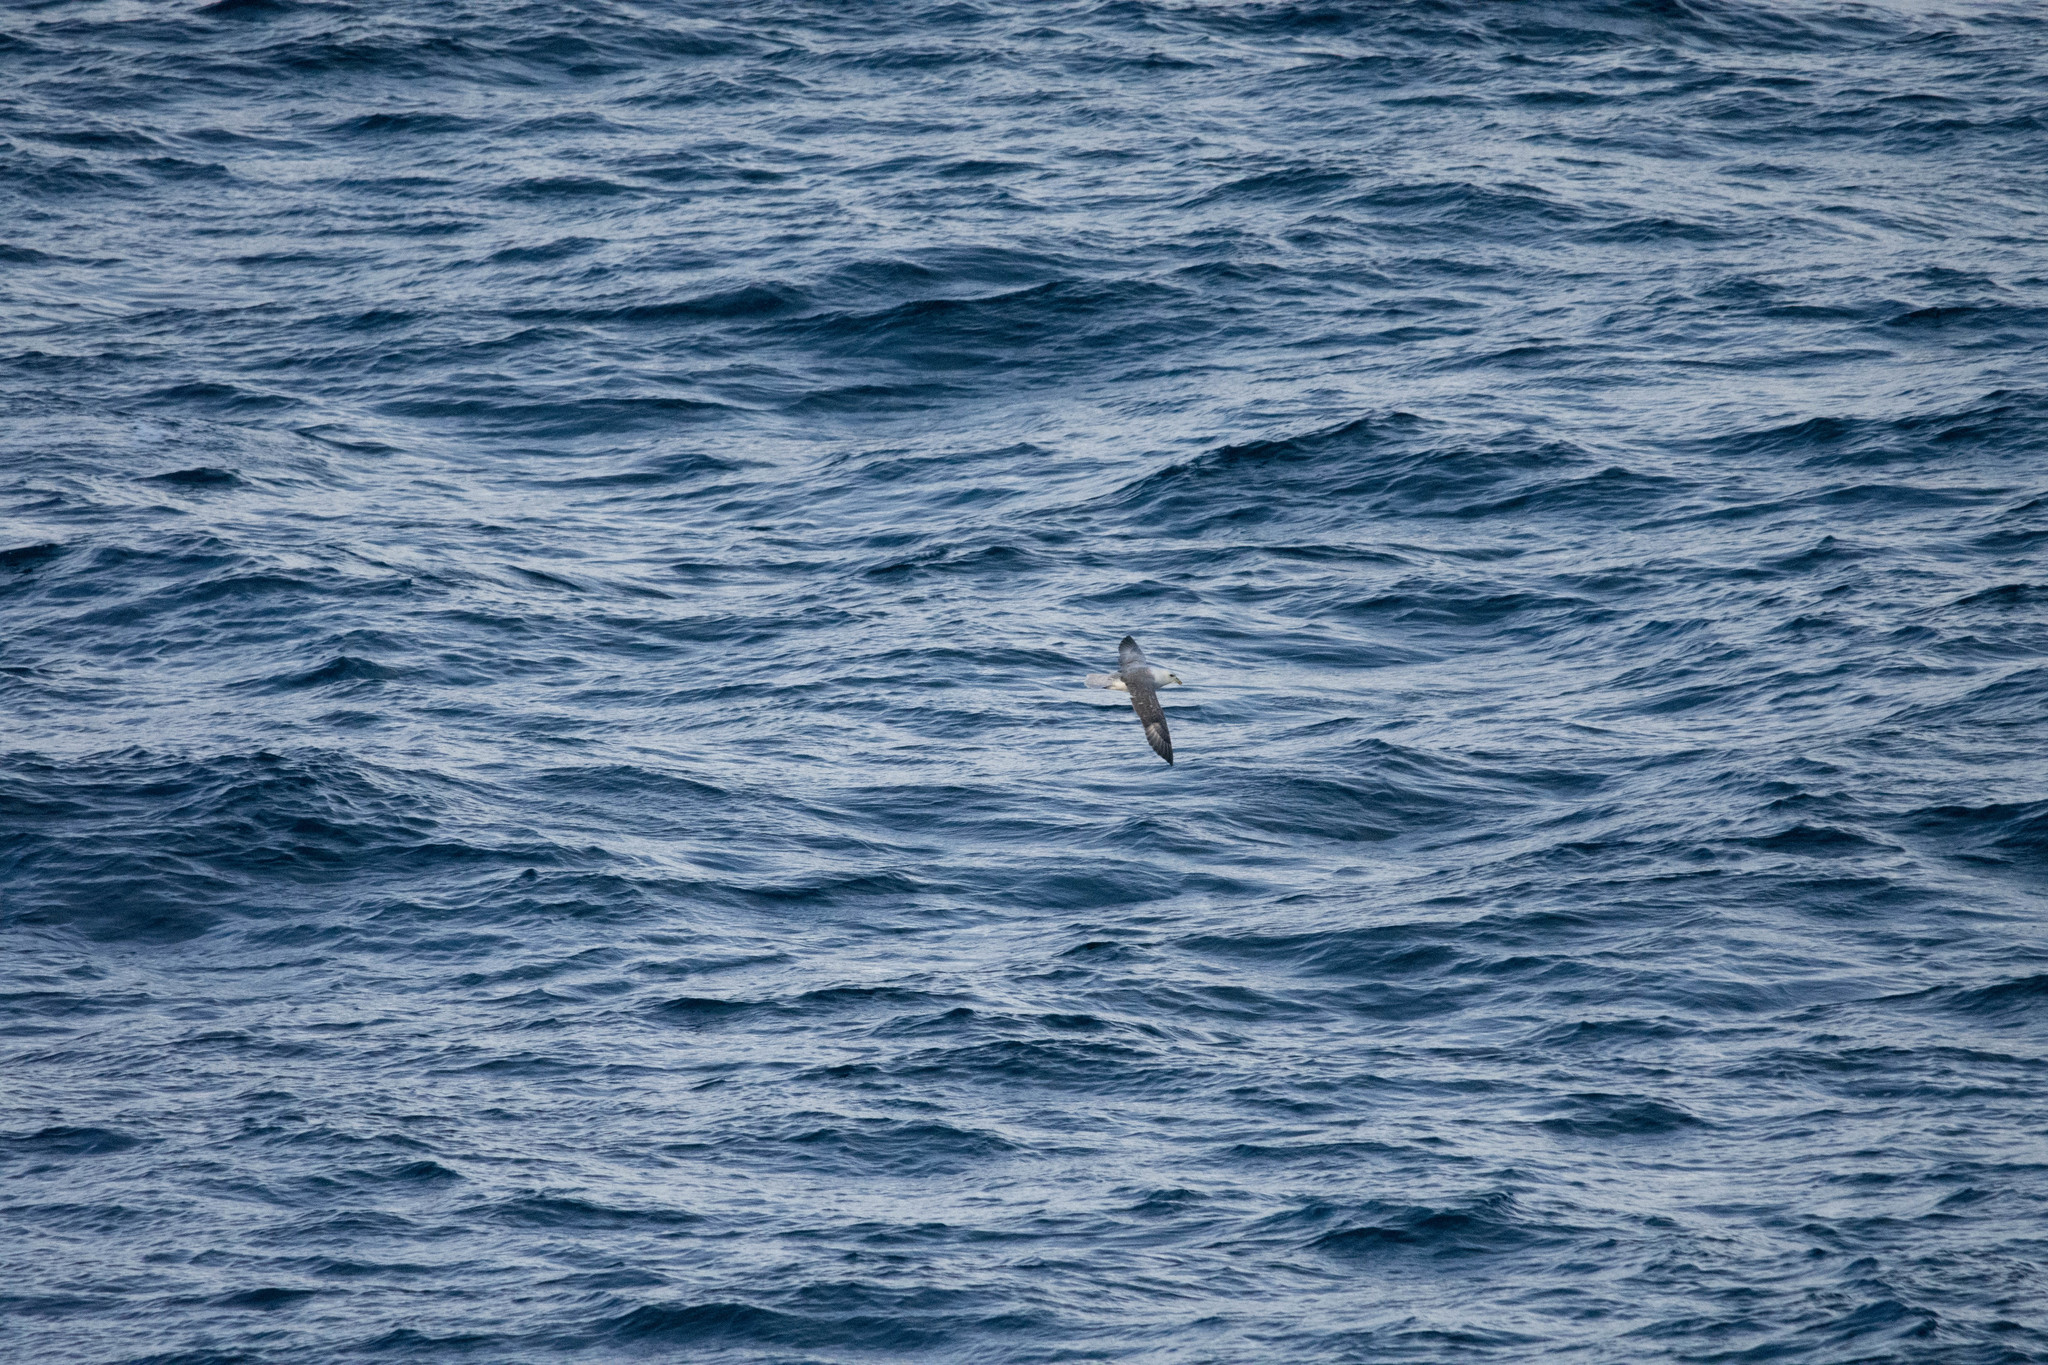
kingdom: Animalia
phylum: Chordata
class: Aves
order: Procellariiformes
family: Procellariidae
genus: Fulmarus
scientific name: Fulmarus glacialis
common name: Northern fulmar
